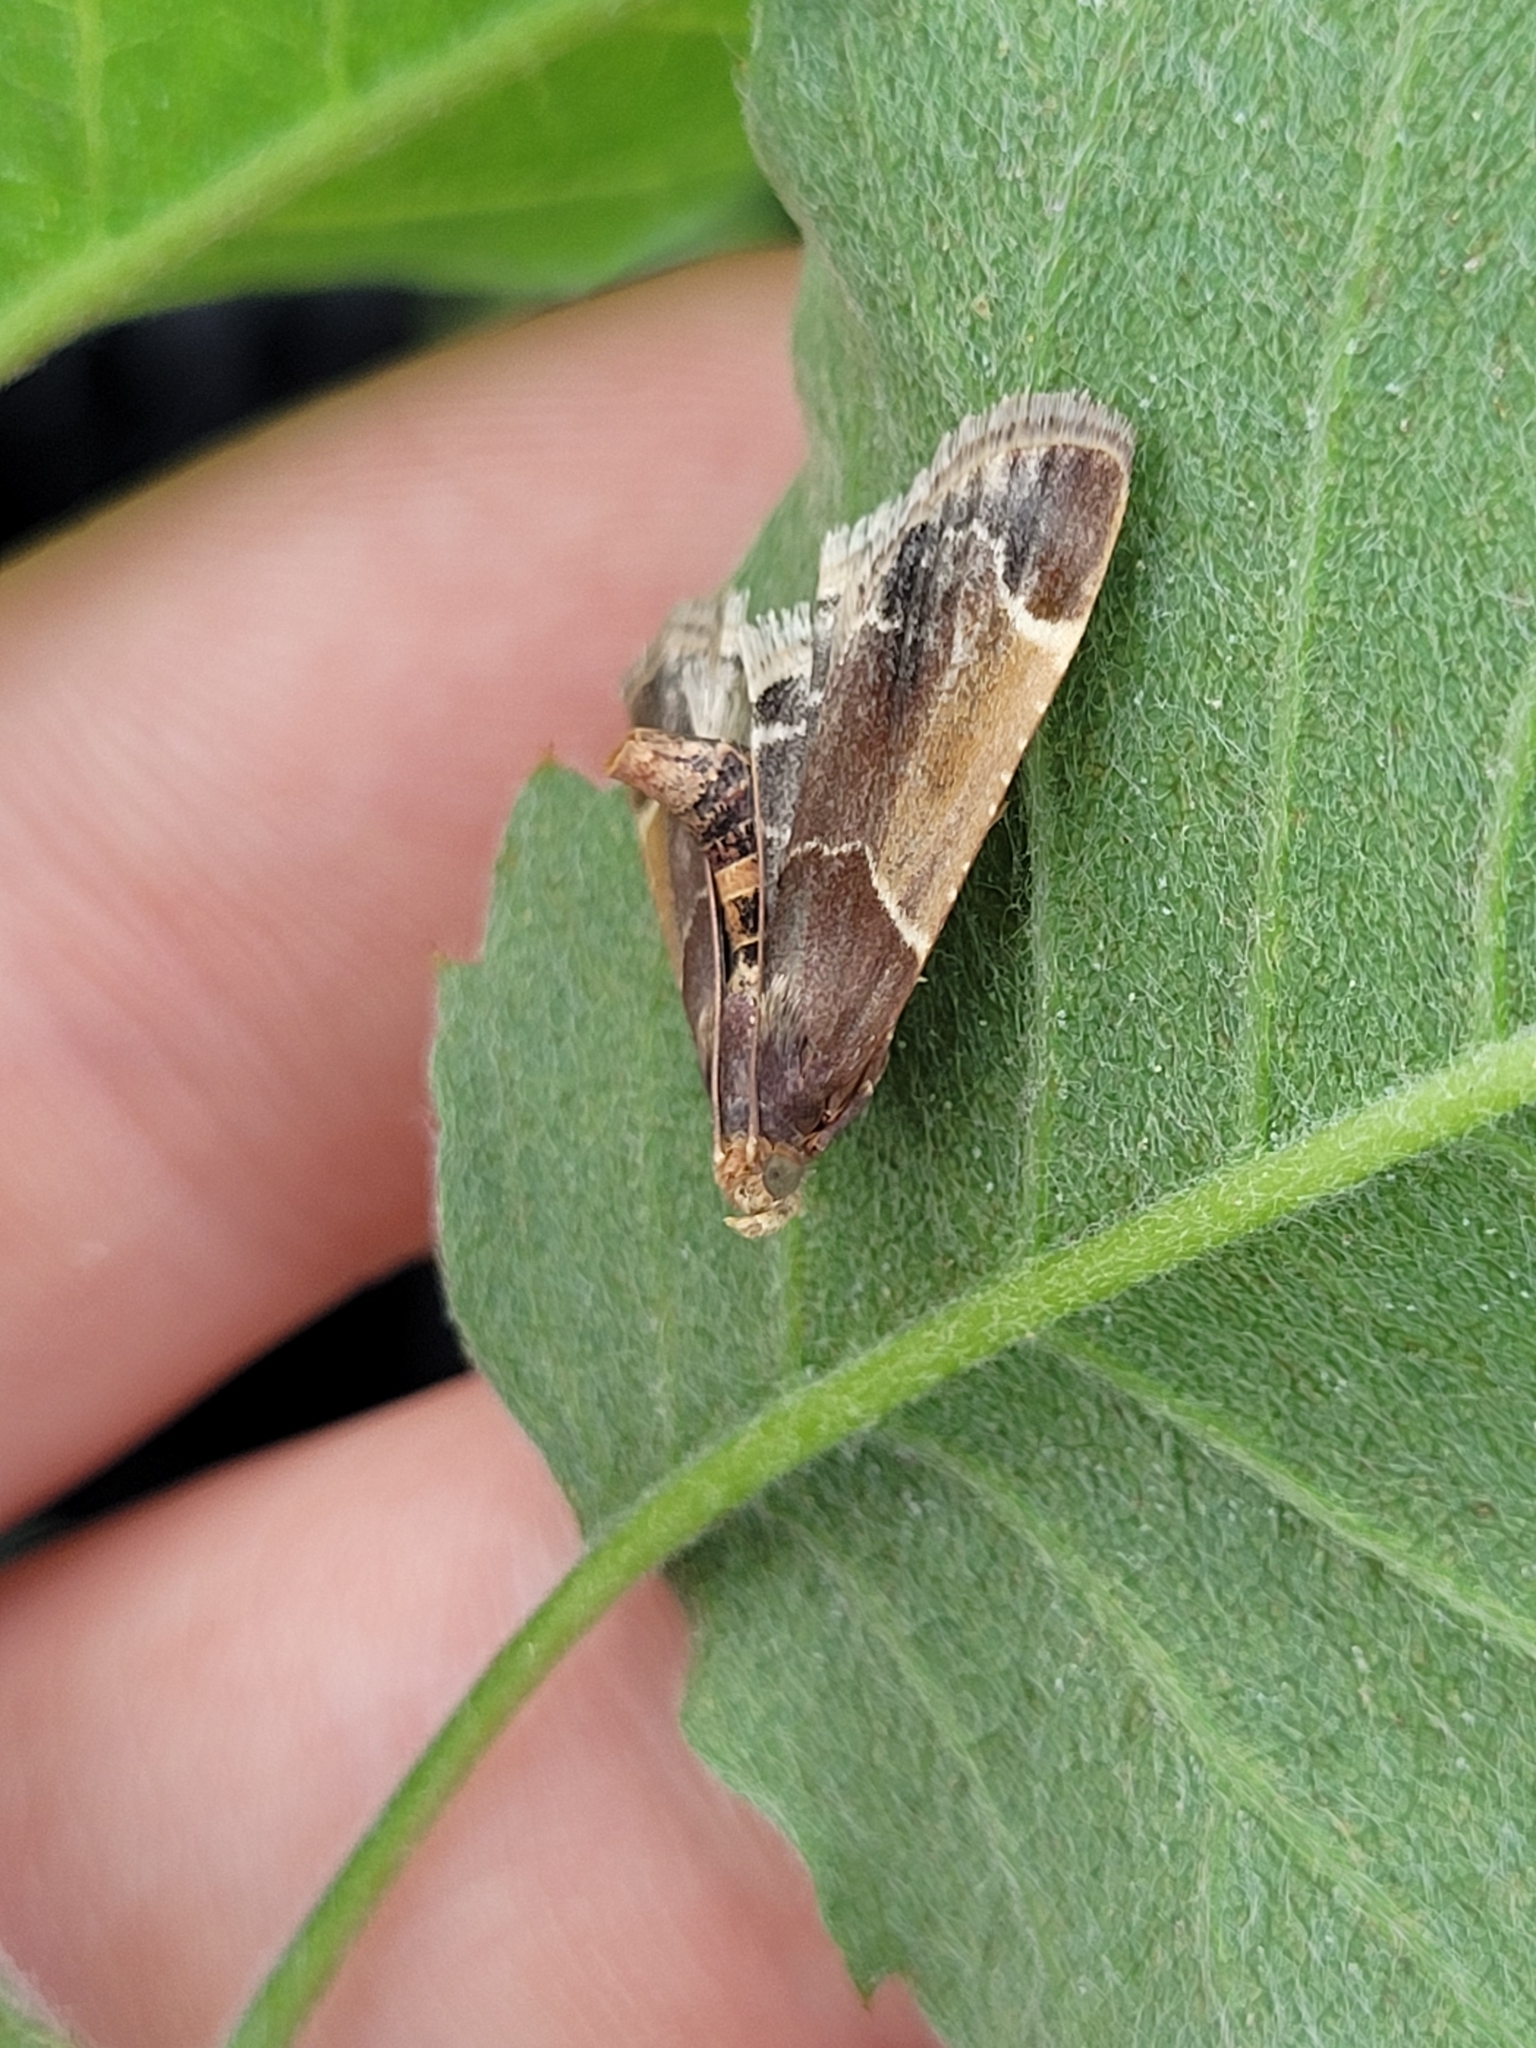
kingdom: Animalia
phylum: Arthropoda
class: Insecta
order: Lepidoptera
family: Pyralidae
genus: Pyralis
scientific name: Pyralis farinalis
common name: Meal moth
